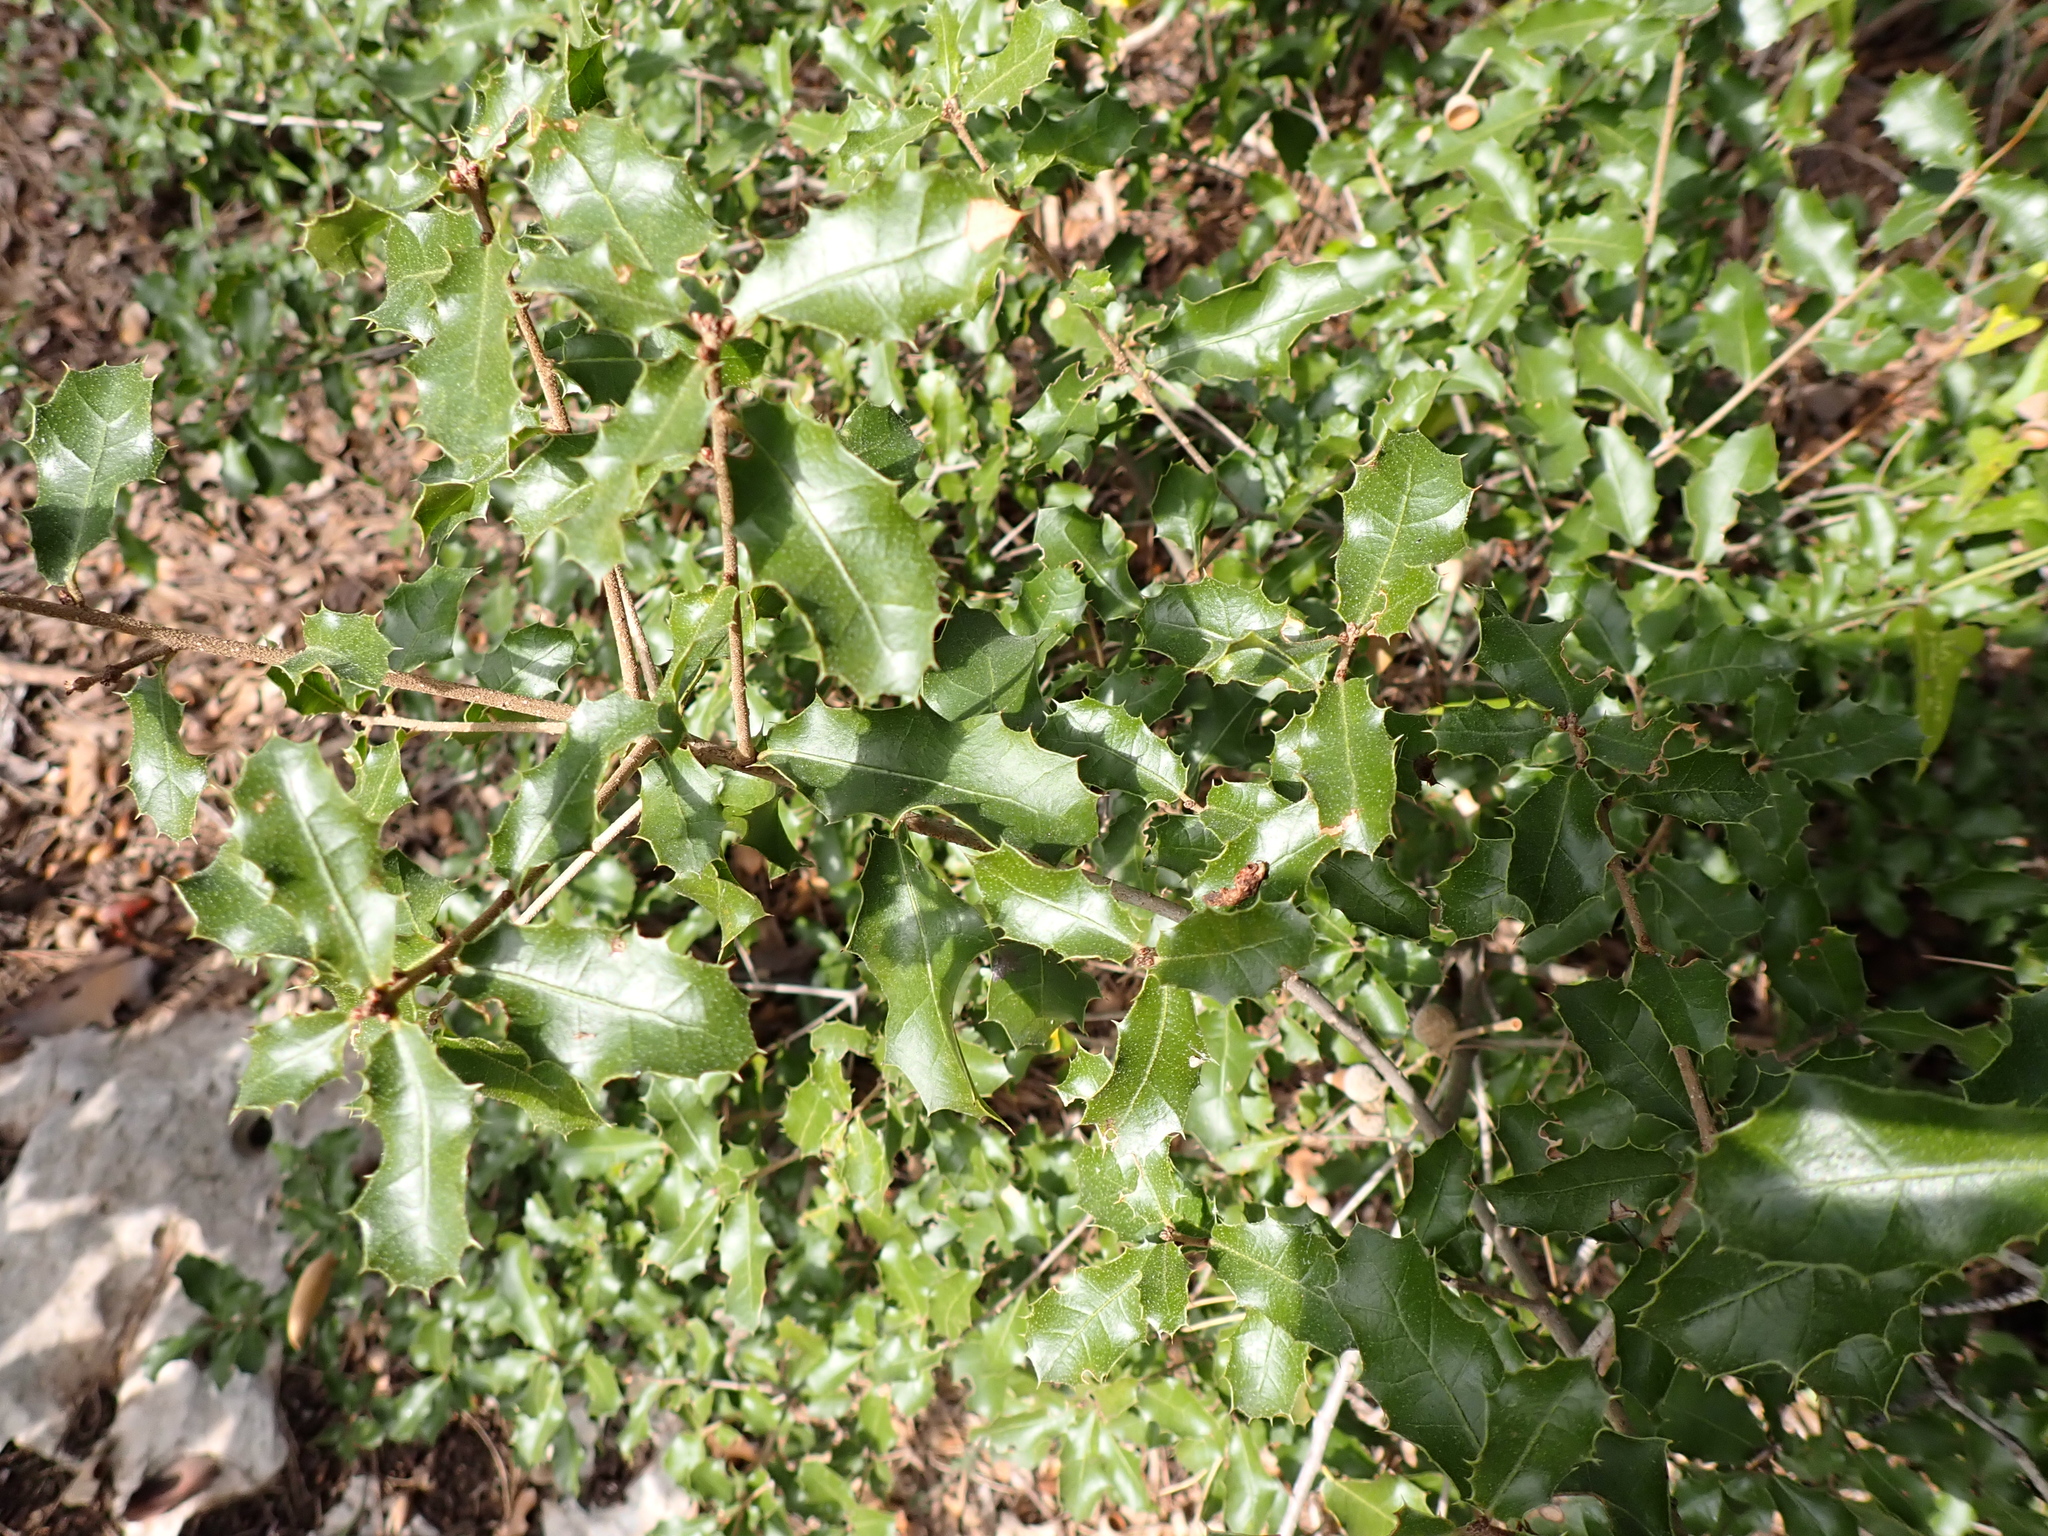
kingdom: Plantae
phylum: Tracheophyta
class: Magnoliopsida
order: Fagales
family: Fagaceae
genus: Quercus
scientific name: Quercus coccifera
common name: Kermes oak
